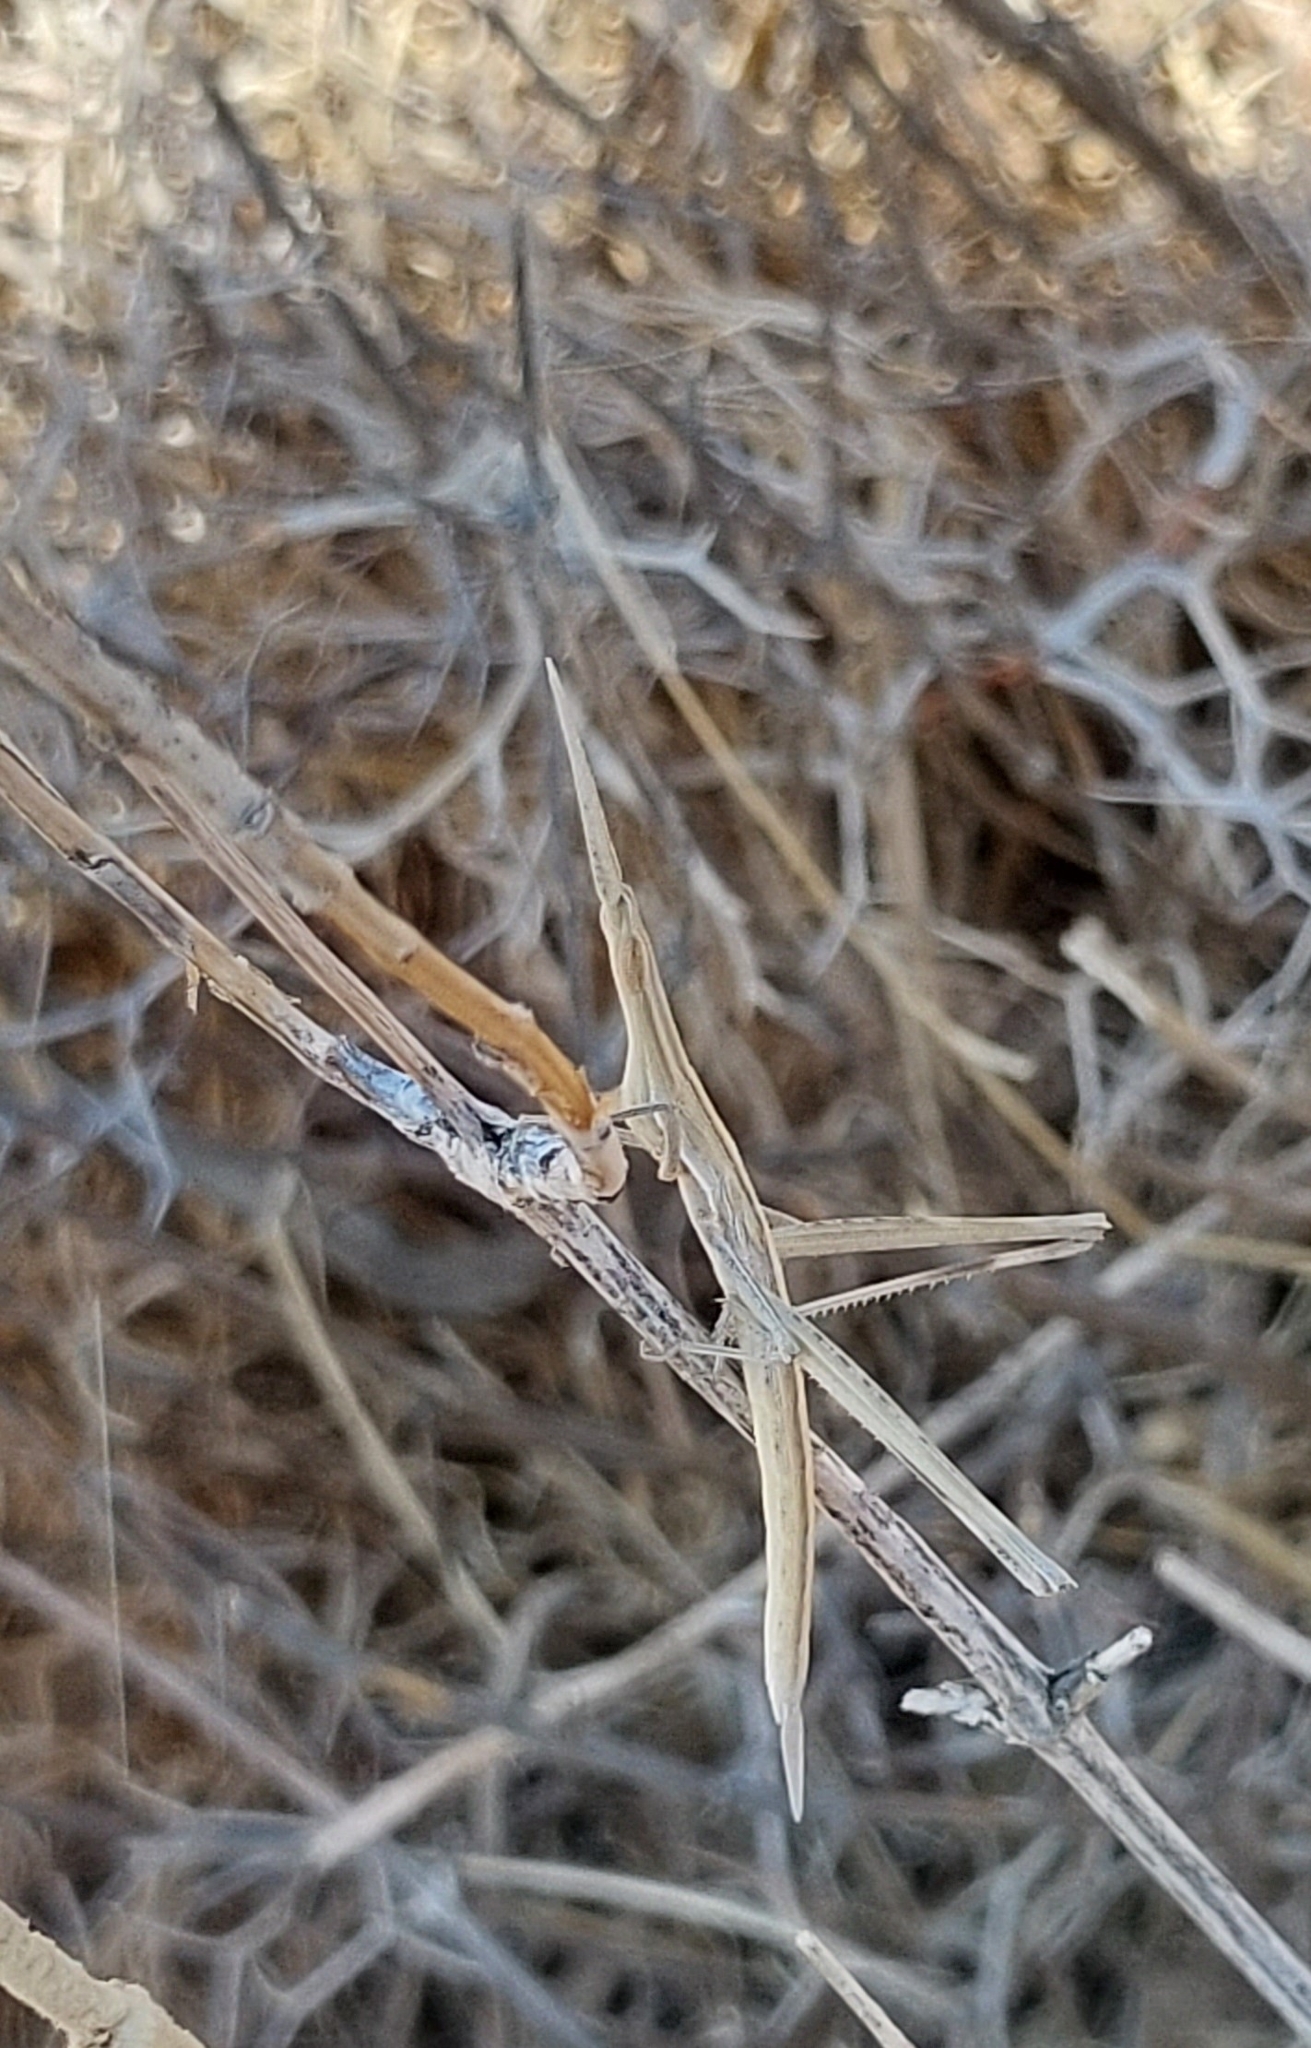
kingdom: Animalia
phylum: Arthropoda
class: Insecta
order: Orthoptera
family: Acrididae
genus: Truxalis
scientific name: Truxalis nasuta
